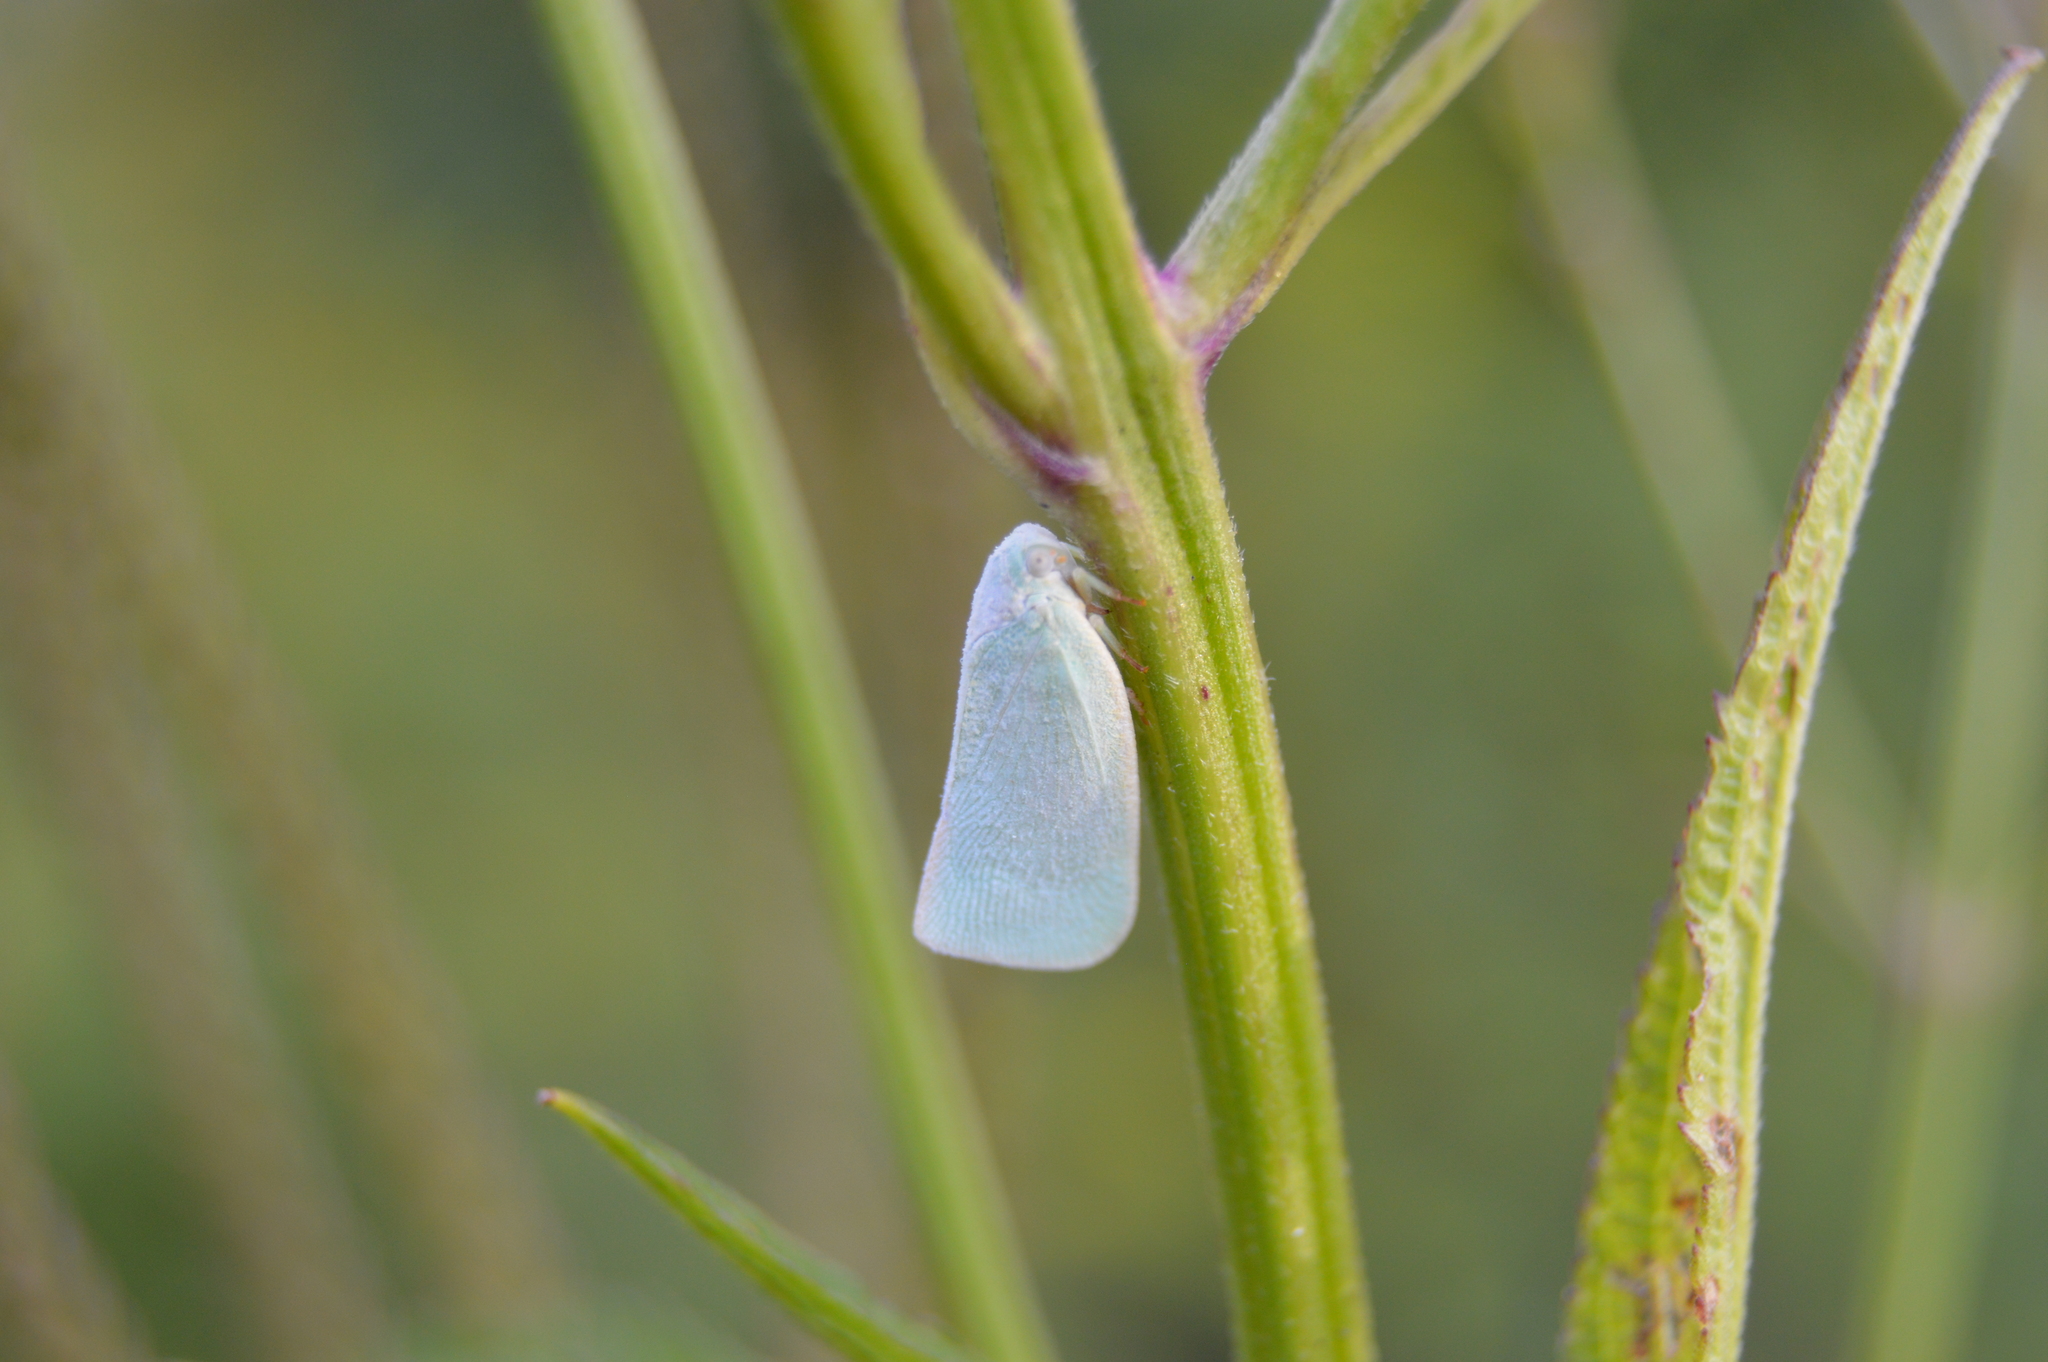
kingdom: Animalia
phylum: Arthropoda
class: Insecta
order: Hemiptera
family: Flatidae
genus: Flatormenis
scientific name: Flatormenis proxima
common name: Northern flatid planthopper
